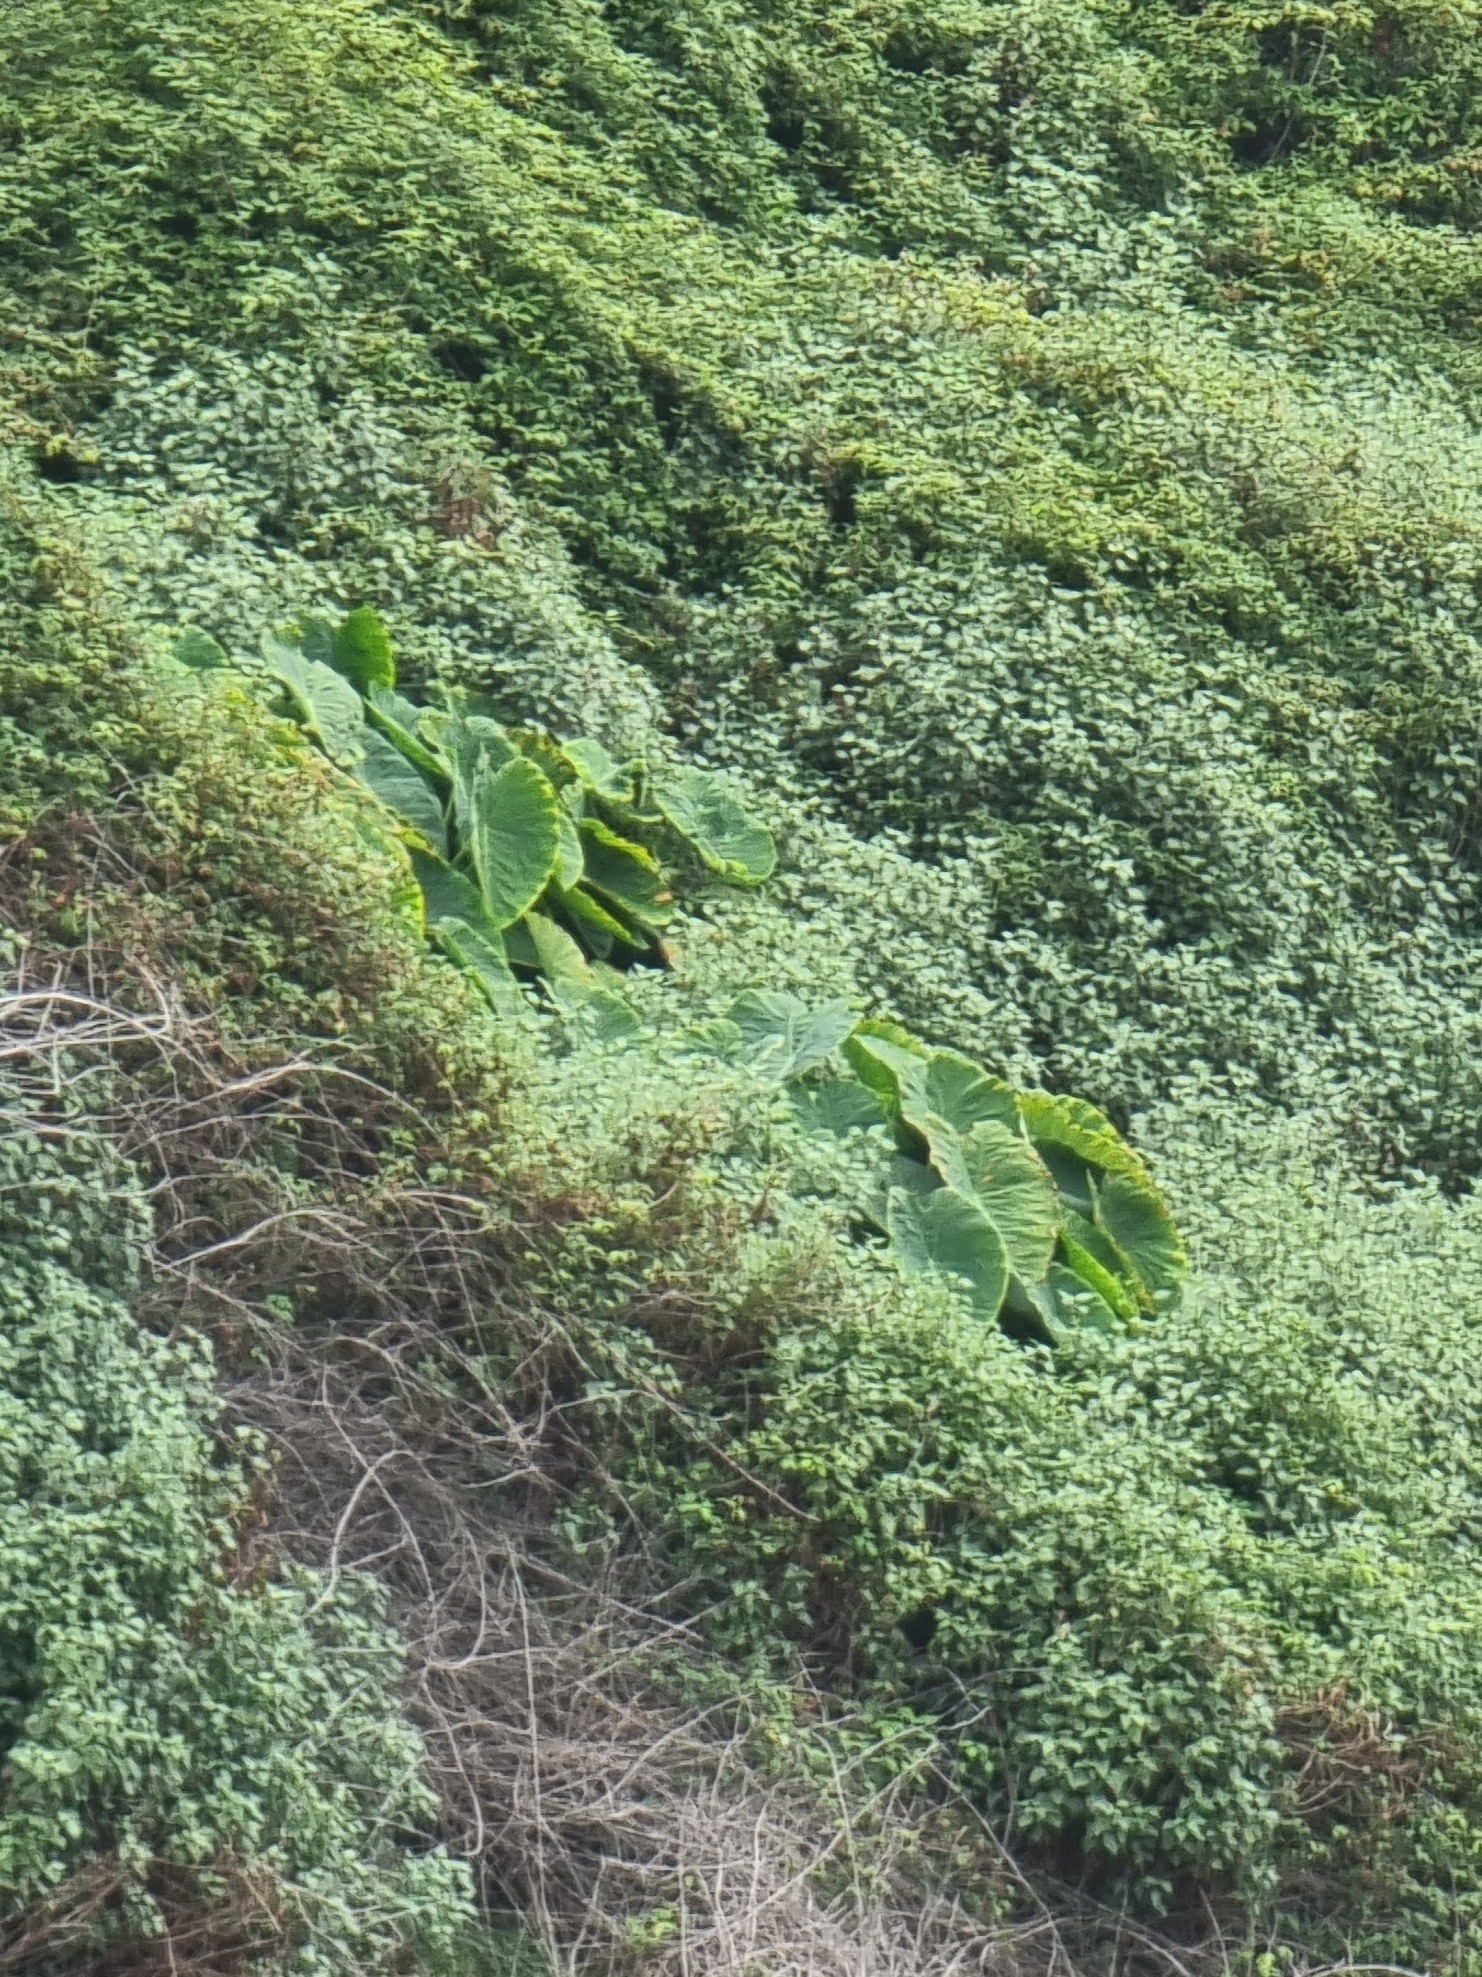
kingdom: Plantae
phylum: Tracheophyta
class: Liliopsida
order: Alismatales
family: Araceae
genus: Colocasia
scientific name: Colocasia esculenta
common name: Taro
